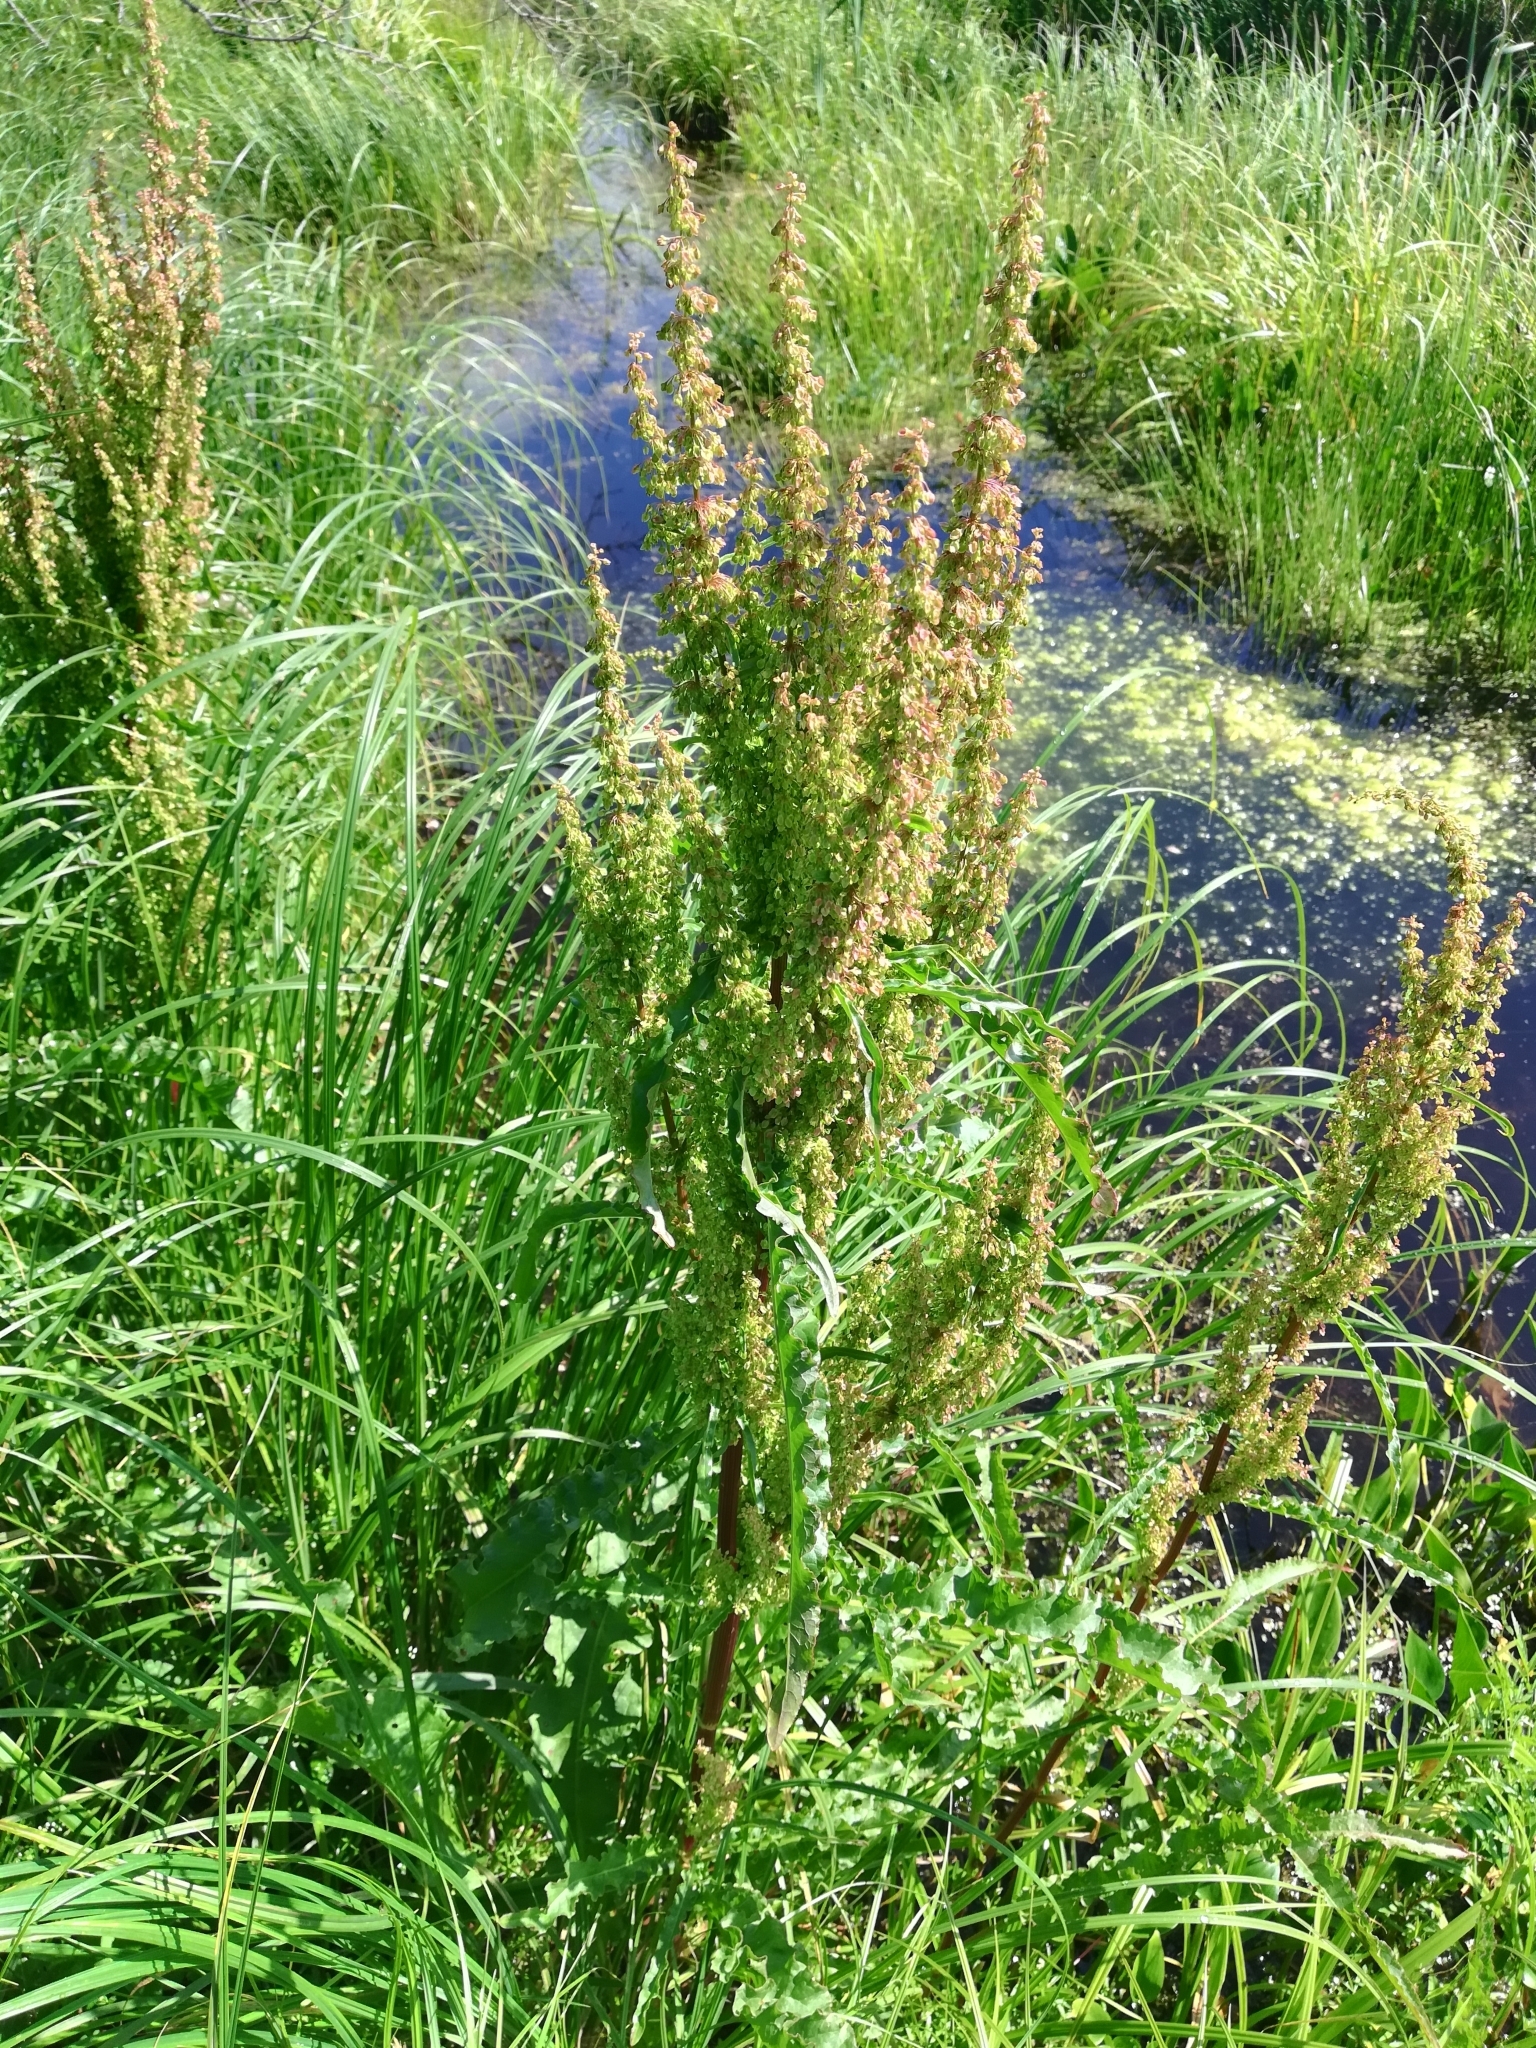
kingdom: Plantae
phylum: Tracheophyta
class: Magnoliopsida
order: Caryophyllales
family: Polygonaceae
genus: Rumex
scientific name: Rumex pseudonatronatus
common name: Field dock
